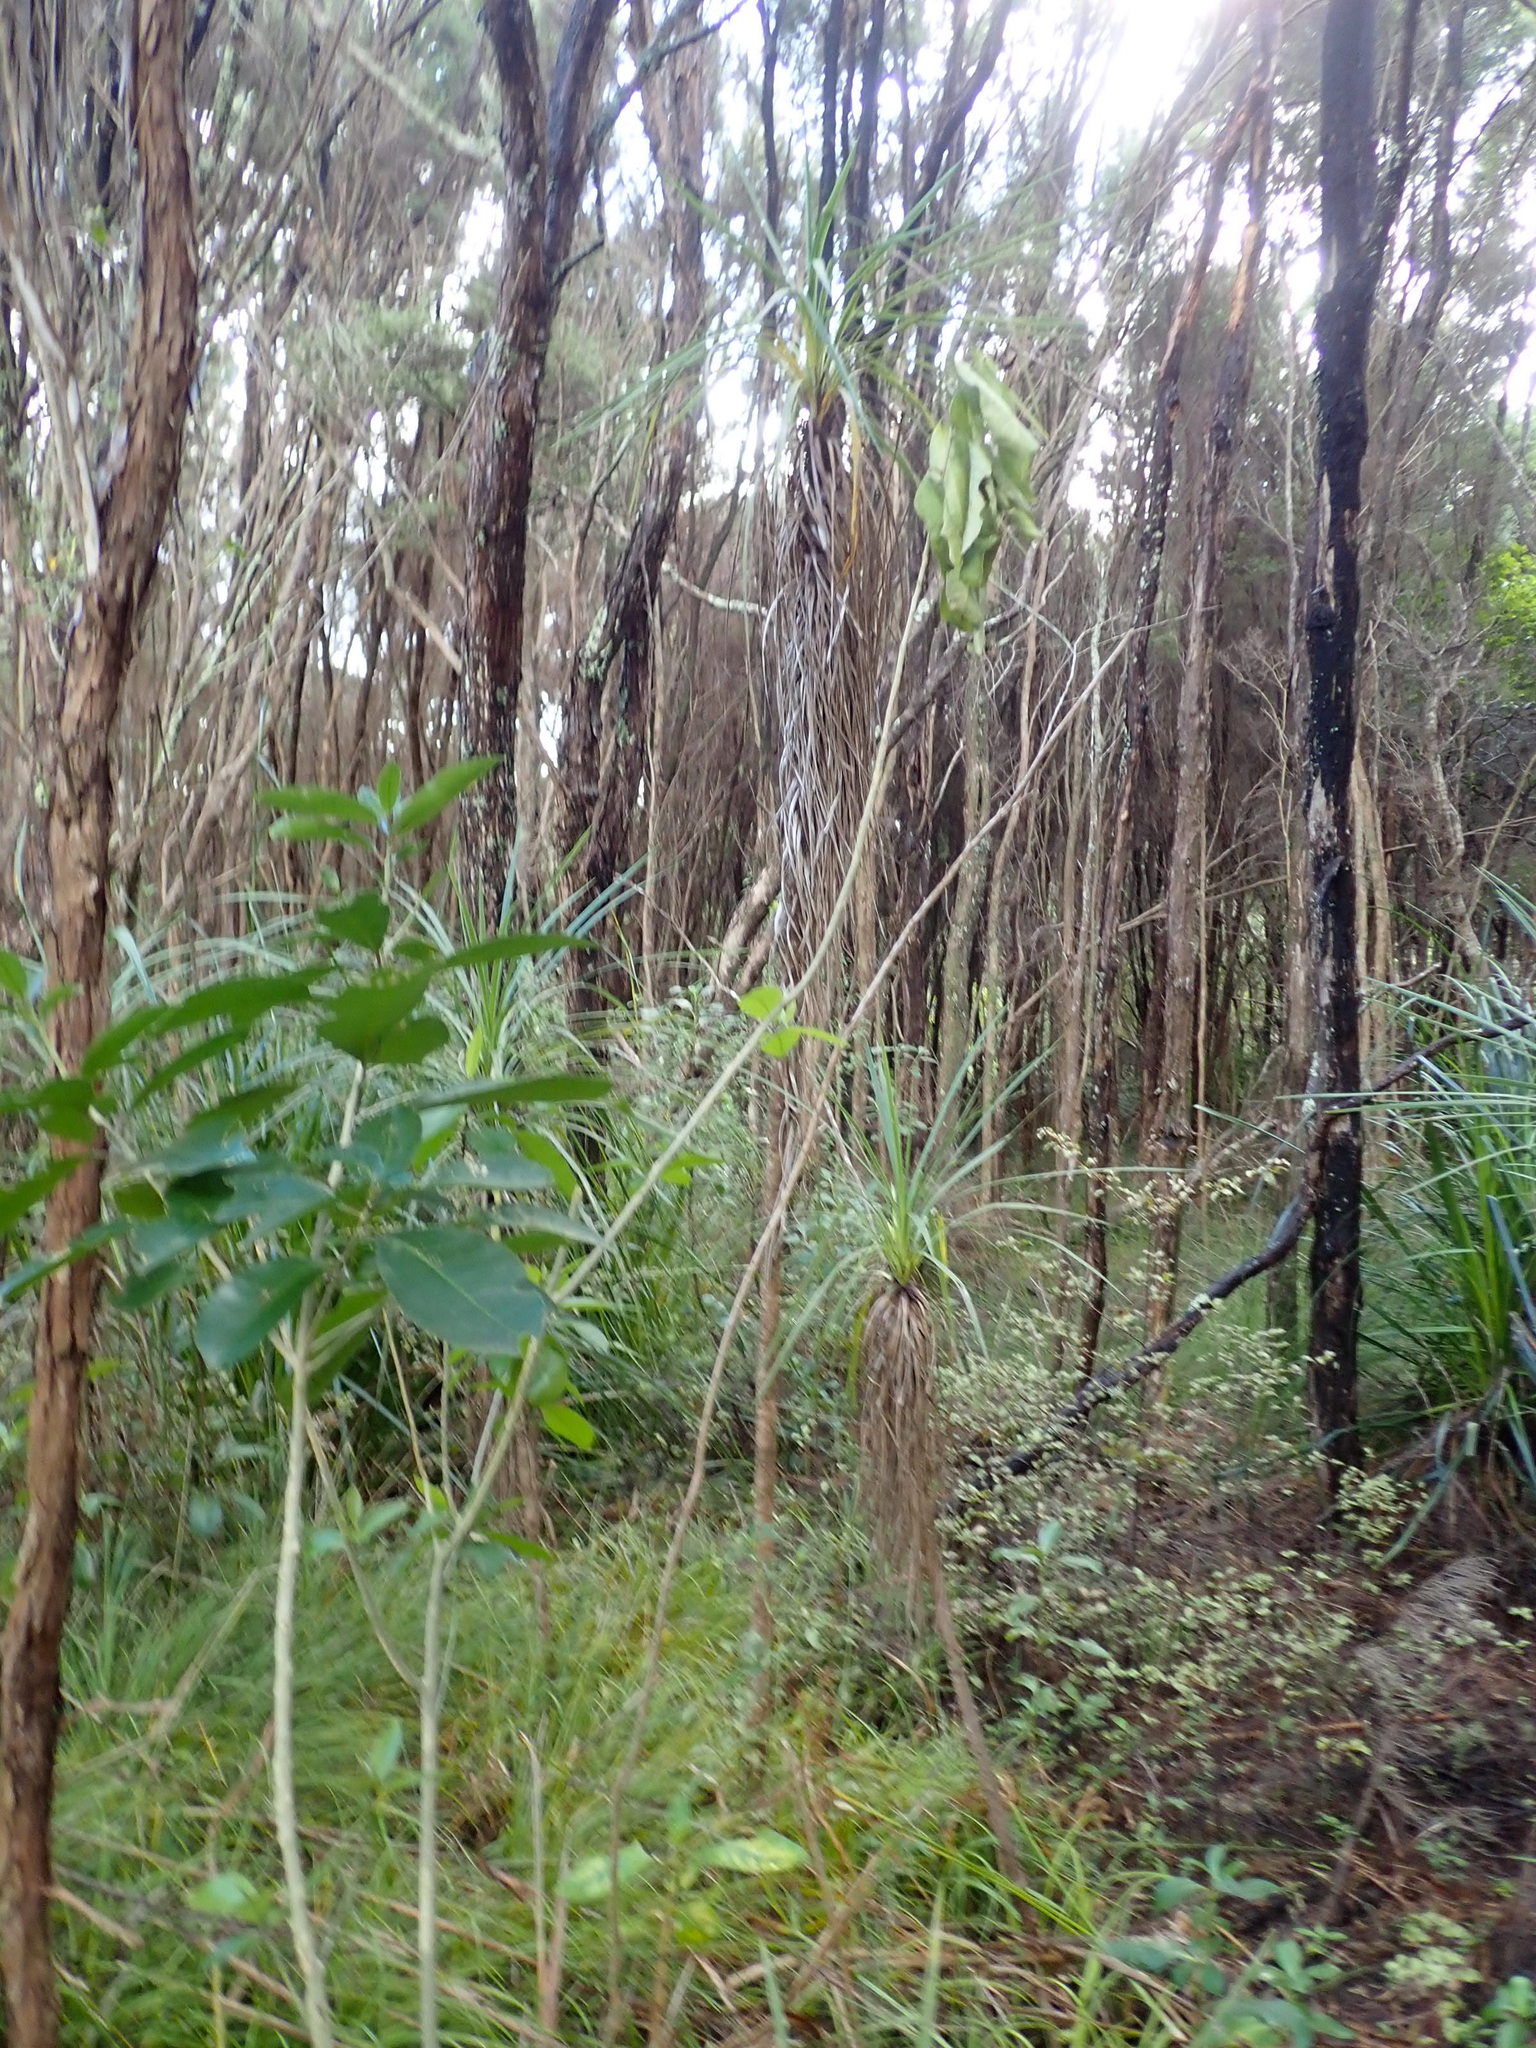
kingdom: Plantae
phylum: Tracheophyta
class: Liliopsida
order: Asparagales
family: Asparagaceae
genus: Cordyline
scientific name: Cordyline australis
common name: Cabbage-palm
